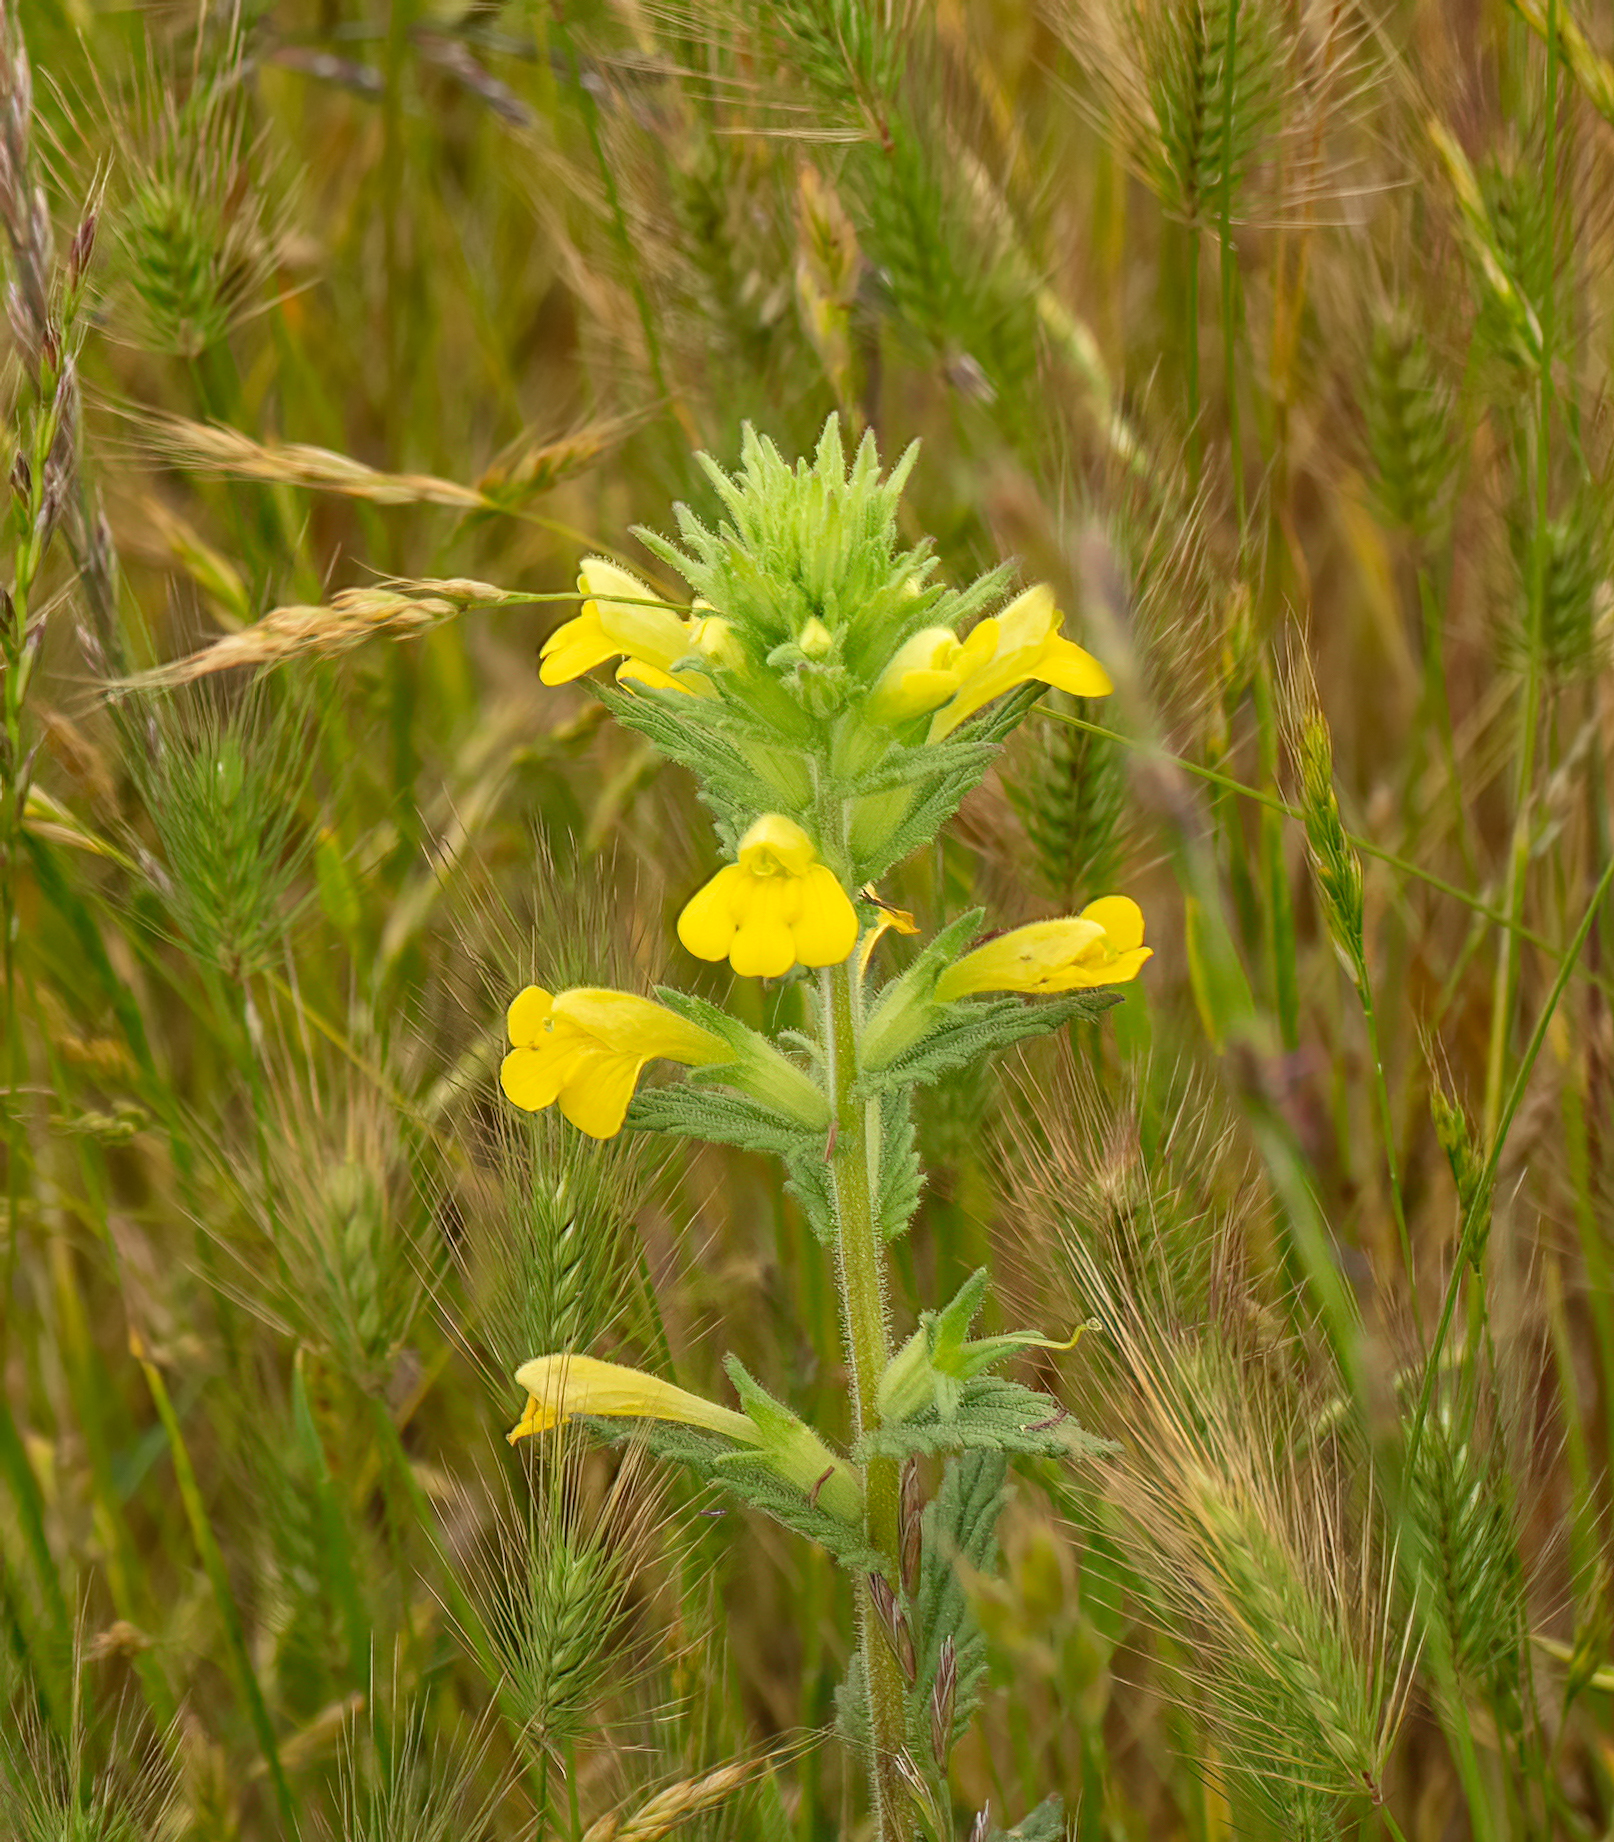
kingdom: Plantae
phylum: Tracheophyta
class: Magnoliopsida
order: Lamiales
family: Orobanchaceae
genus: Bellardia
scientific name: Bellardia viscosa
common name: Sticky parentucellia
